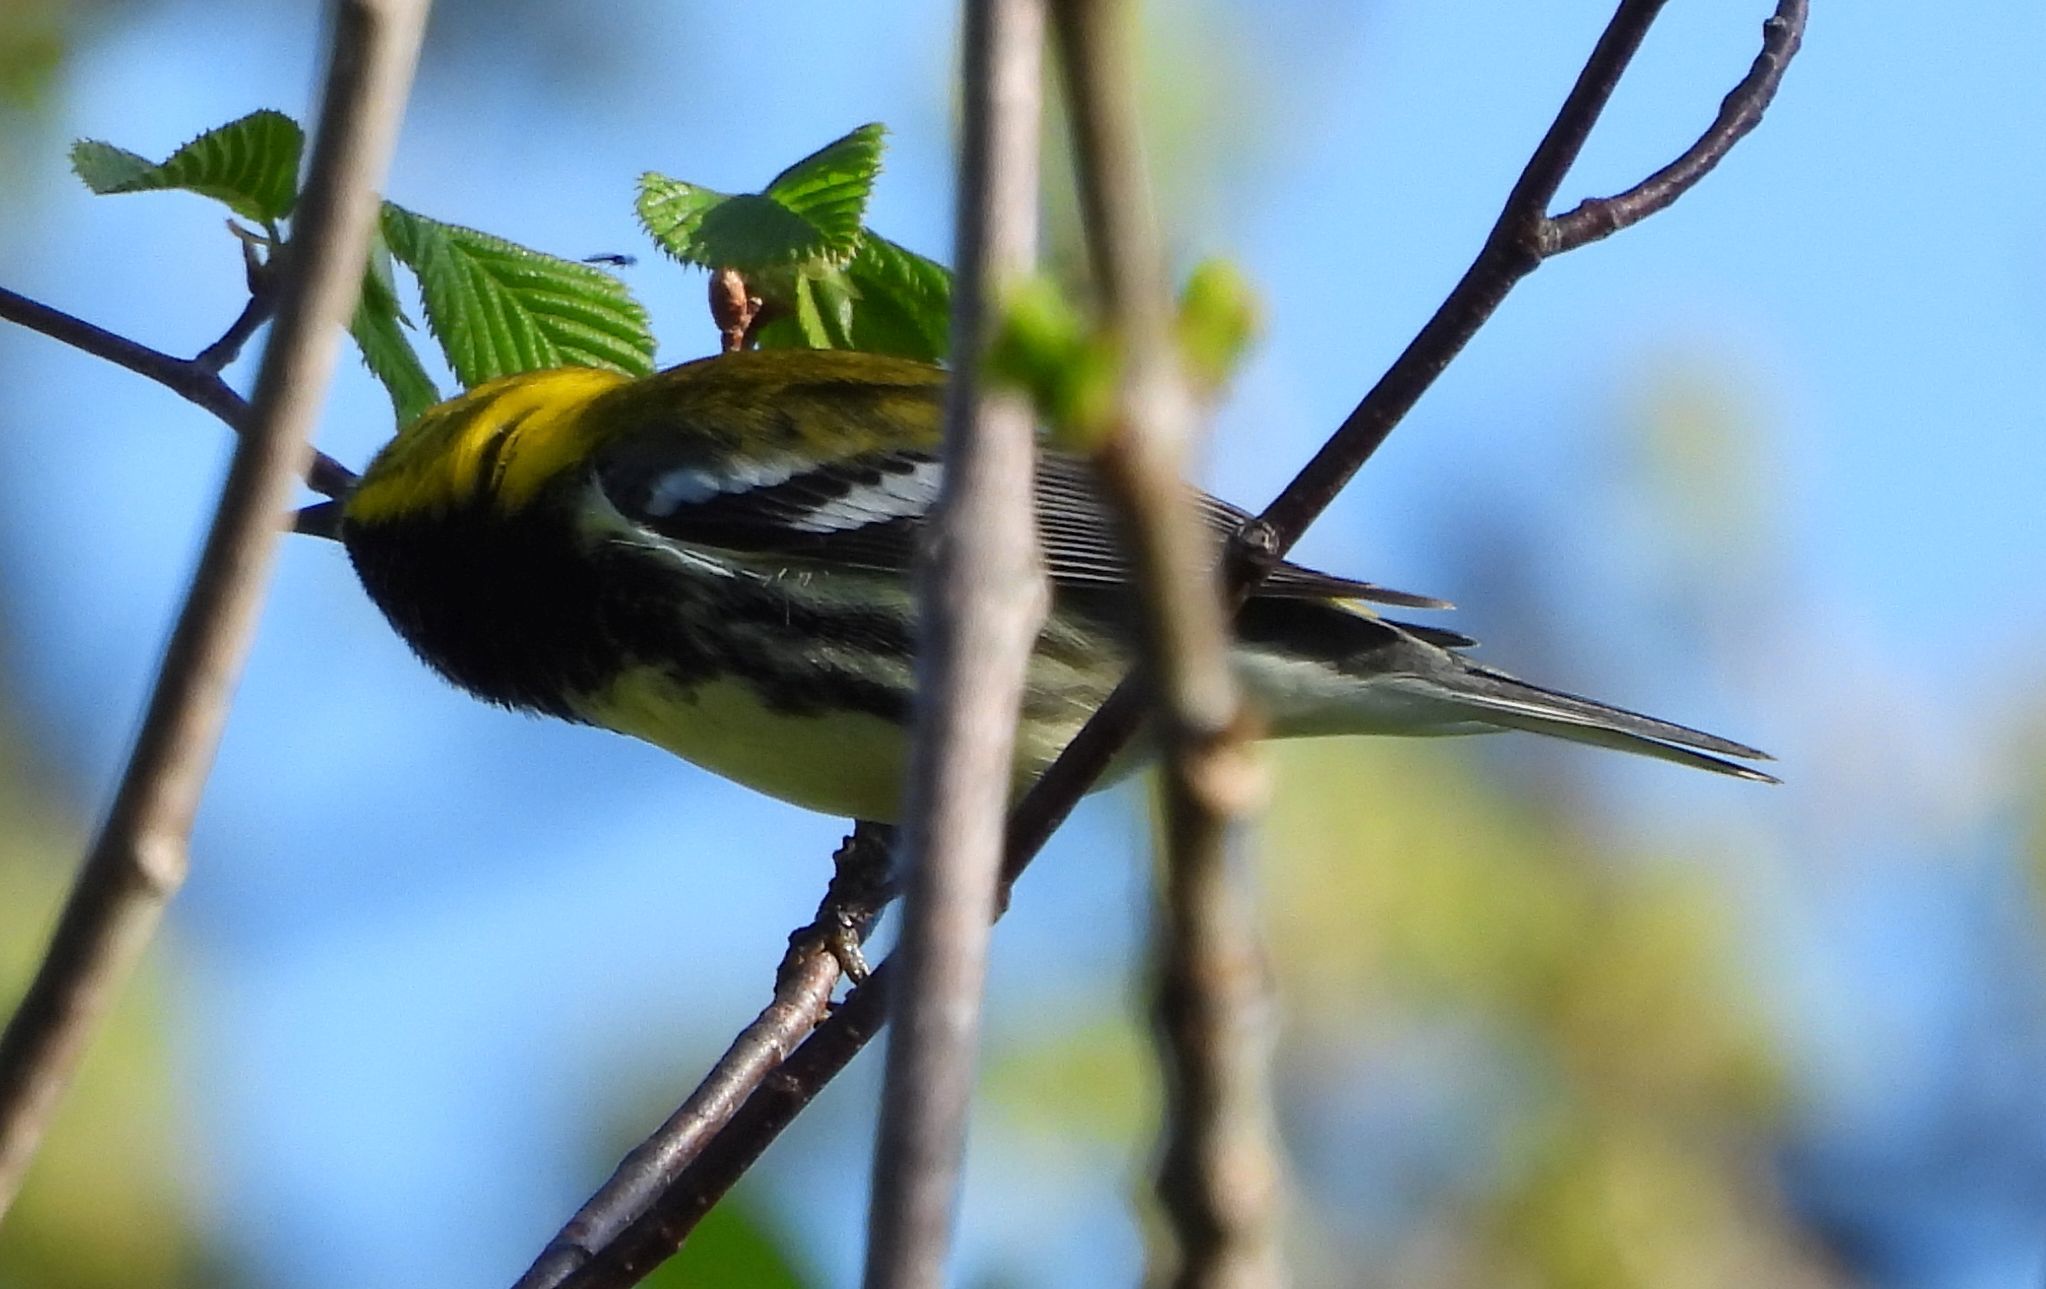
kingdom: Animalia
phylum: Chordata
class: Aves
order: Passeriformes
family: Parulidae
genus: Setophaga
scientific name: Setophaga virens
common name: Black-throated green warbler
